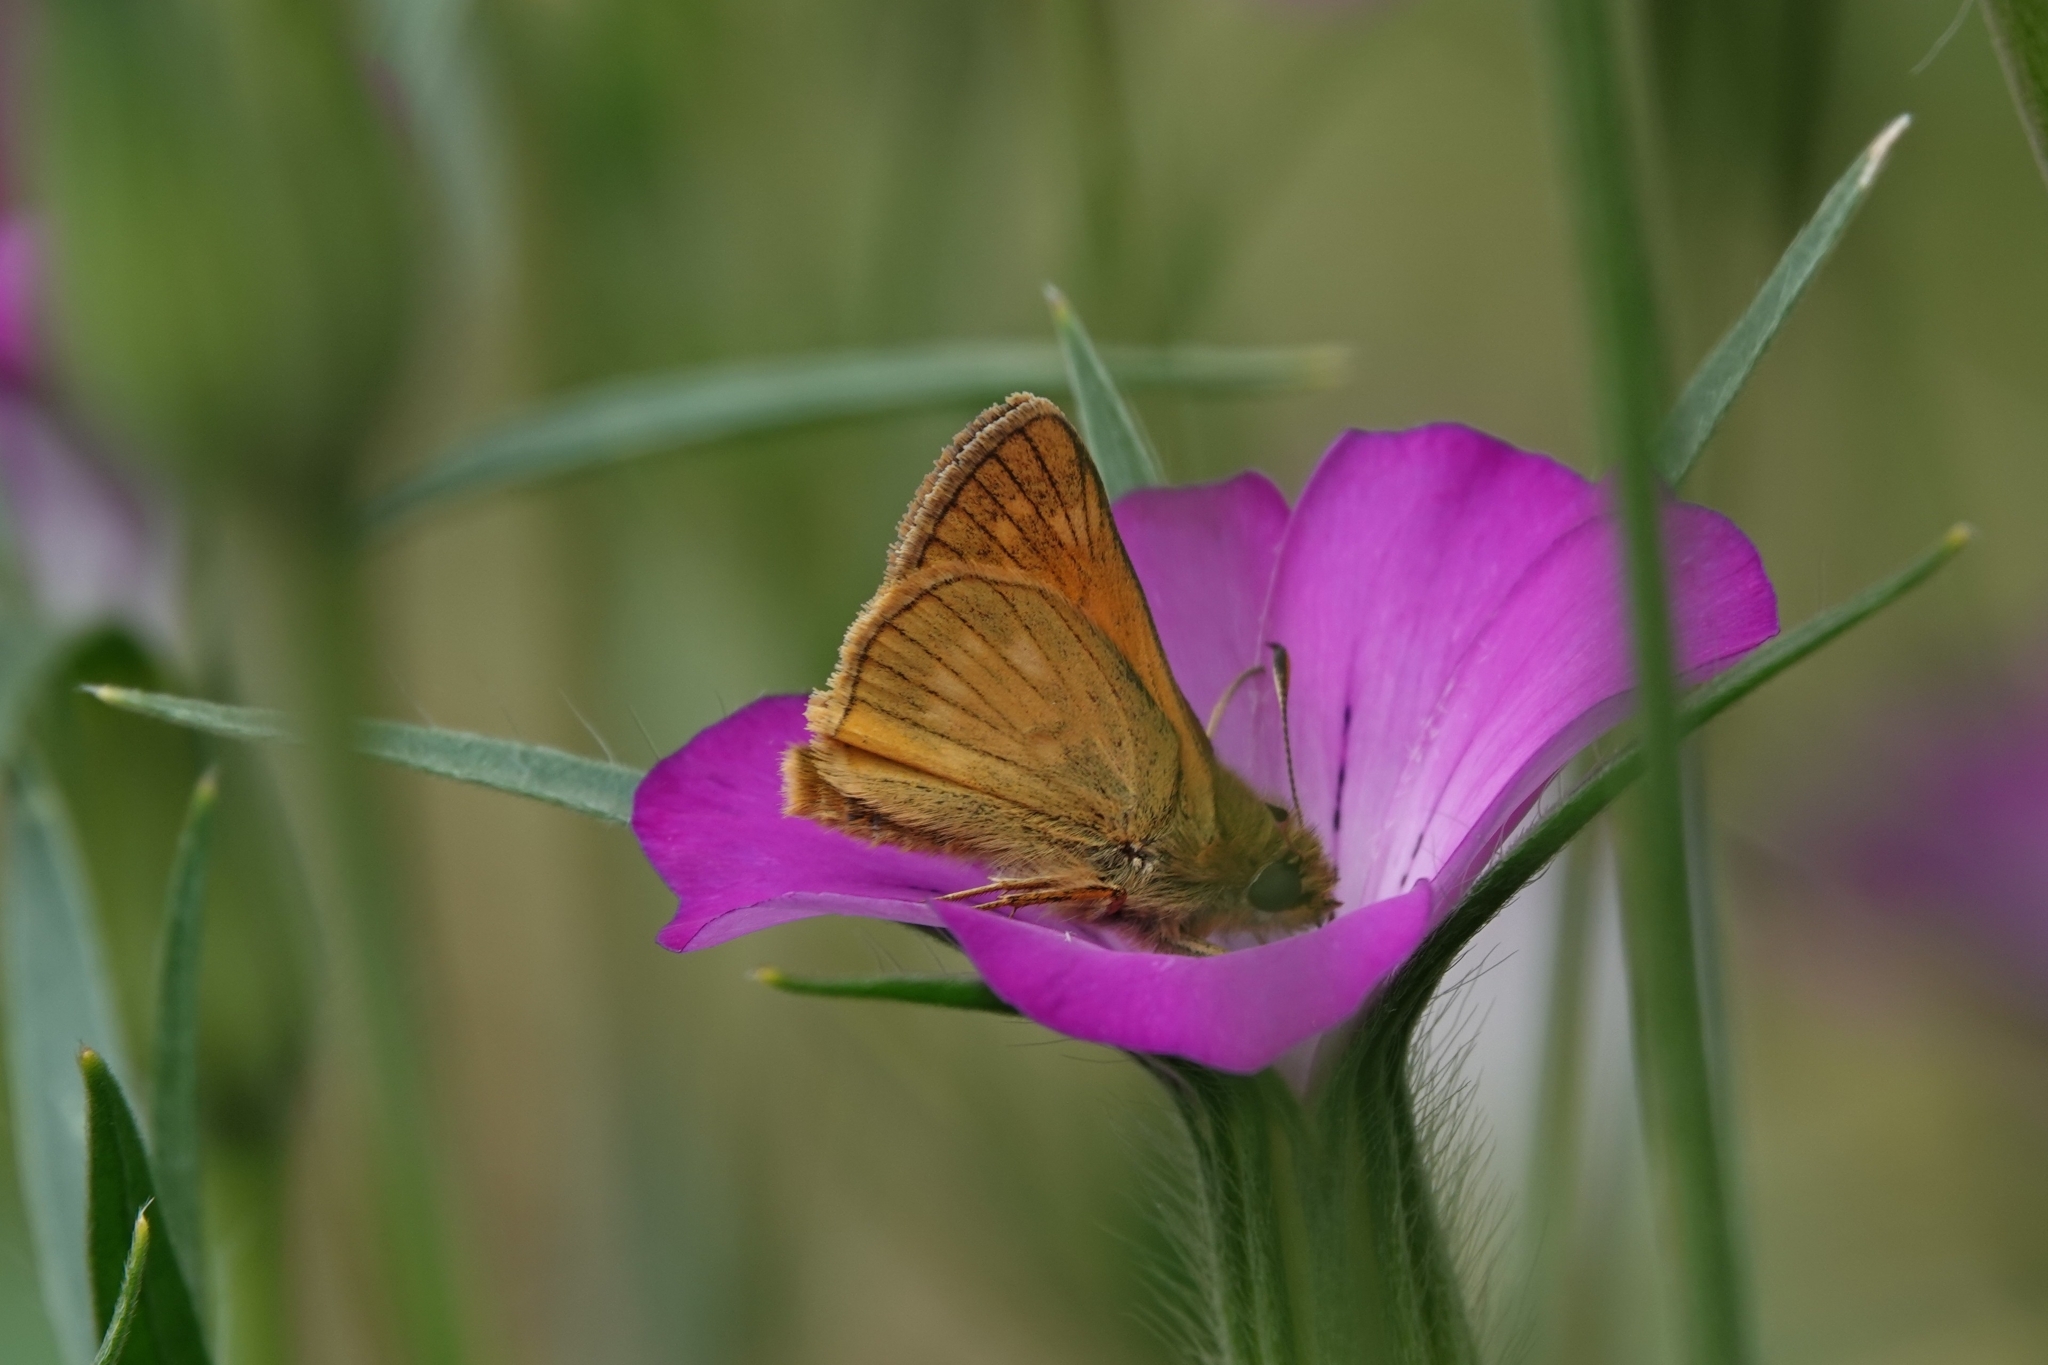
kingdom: Animalia
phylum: Arthropoda
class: Insecta
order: Lepidoptera
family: Hesperiidae
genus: Ochlodes
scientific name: Ochlodes venata
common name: Large skipper
